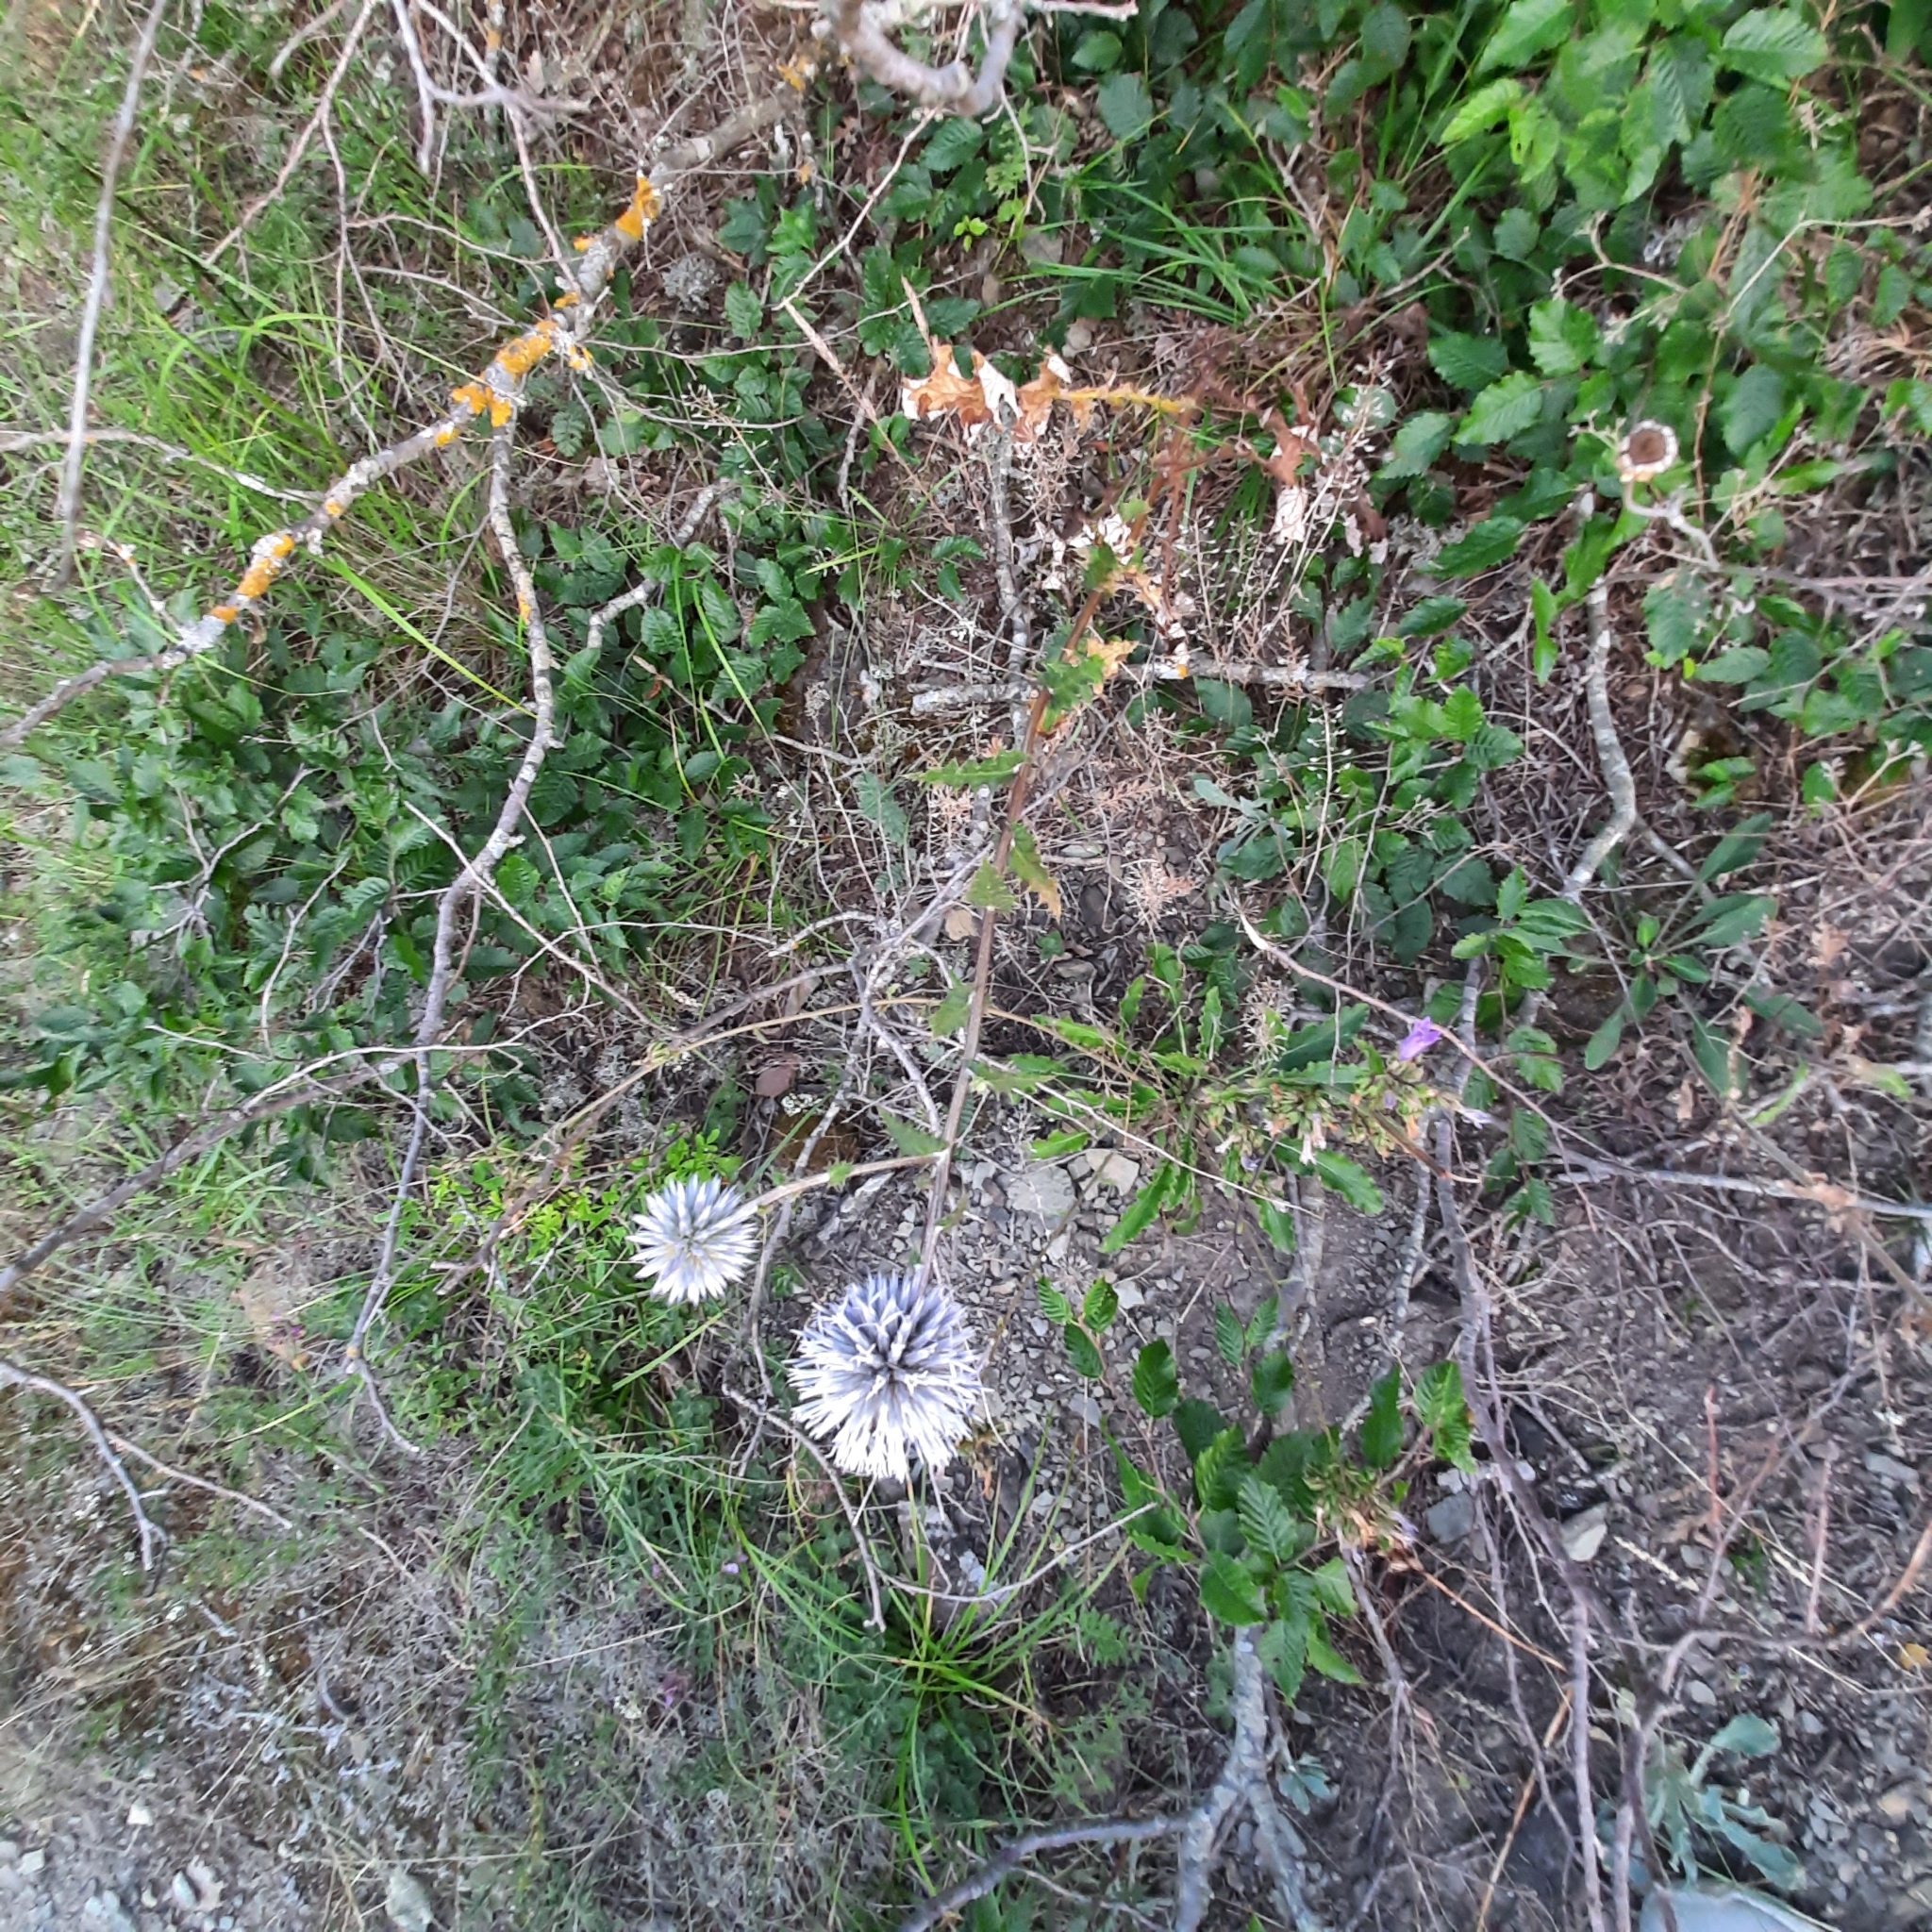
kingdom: Plantae
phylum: Tracheophyta
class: Magnoliopsida
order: Asterales
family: Asteraceae
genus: Echinops
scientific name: Echinops sphaerocephalus
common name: Glandular globe-thistle
